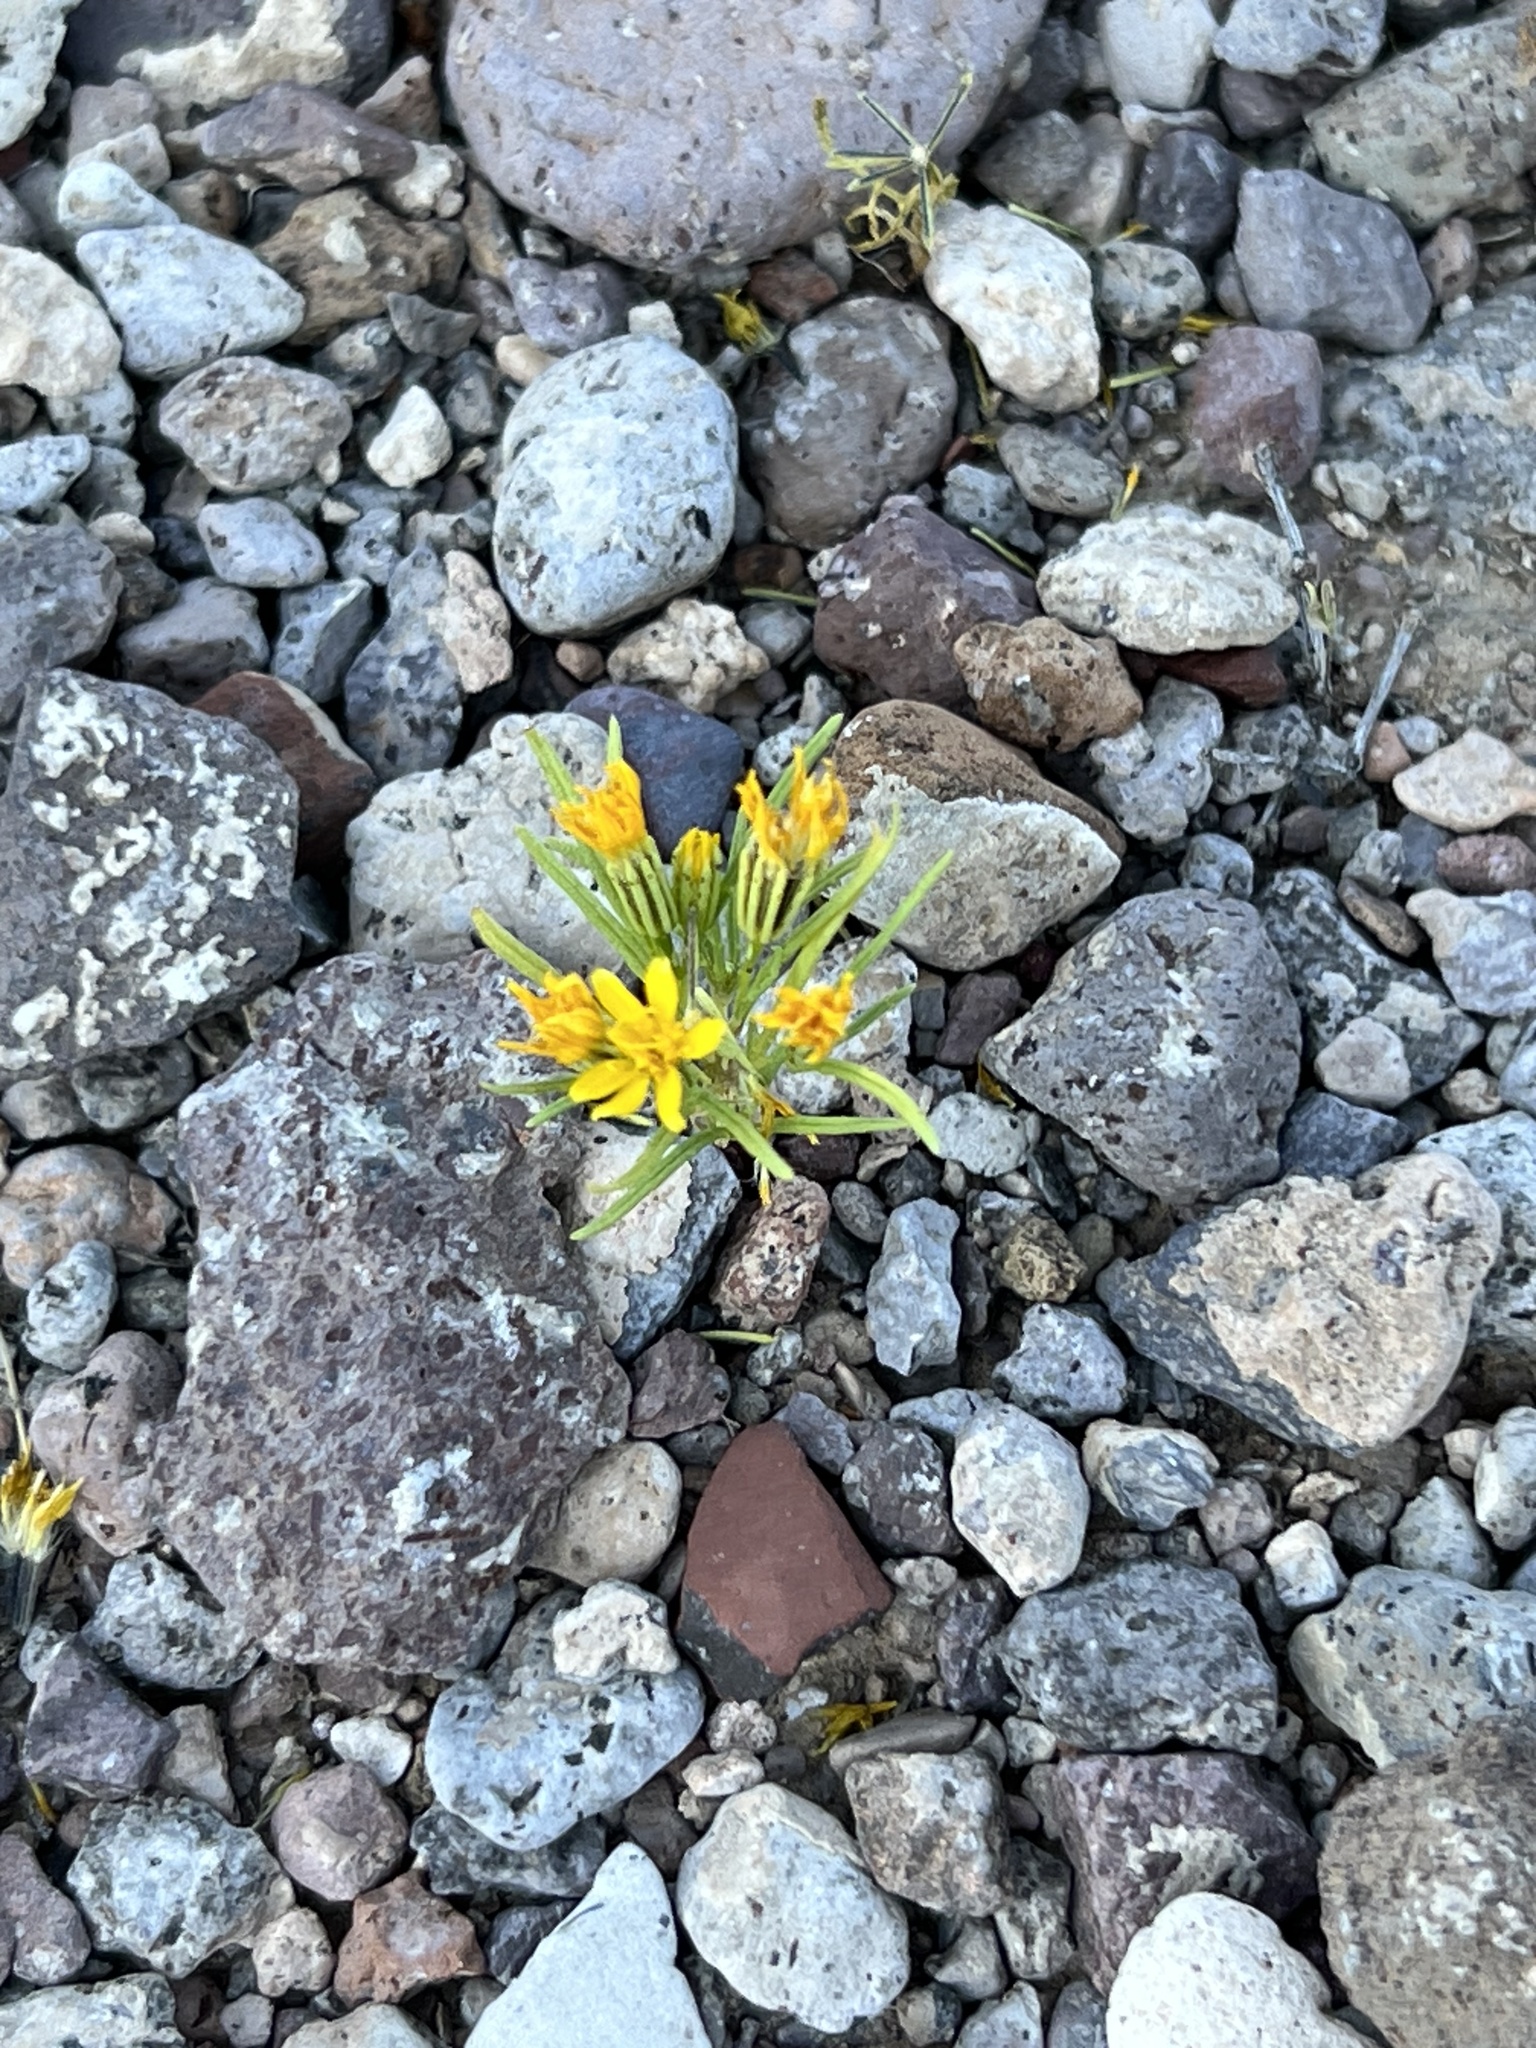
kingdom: Plantae
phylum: Tracheophyta
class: Magnoliopsida
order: Asterales
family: Asteraceae
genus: Pectis
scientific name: Pectis papposa
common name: Many-bristle chinchweed
